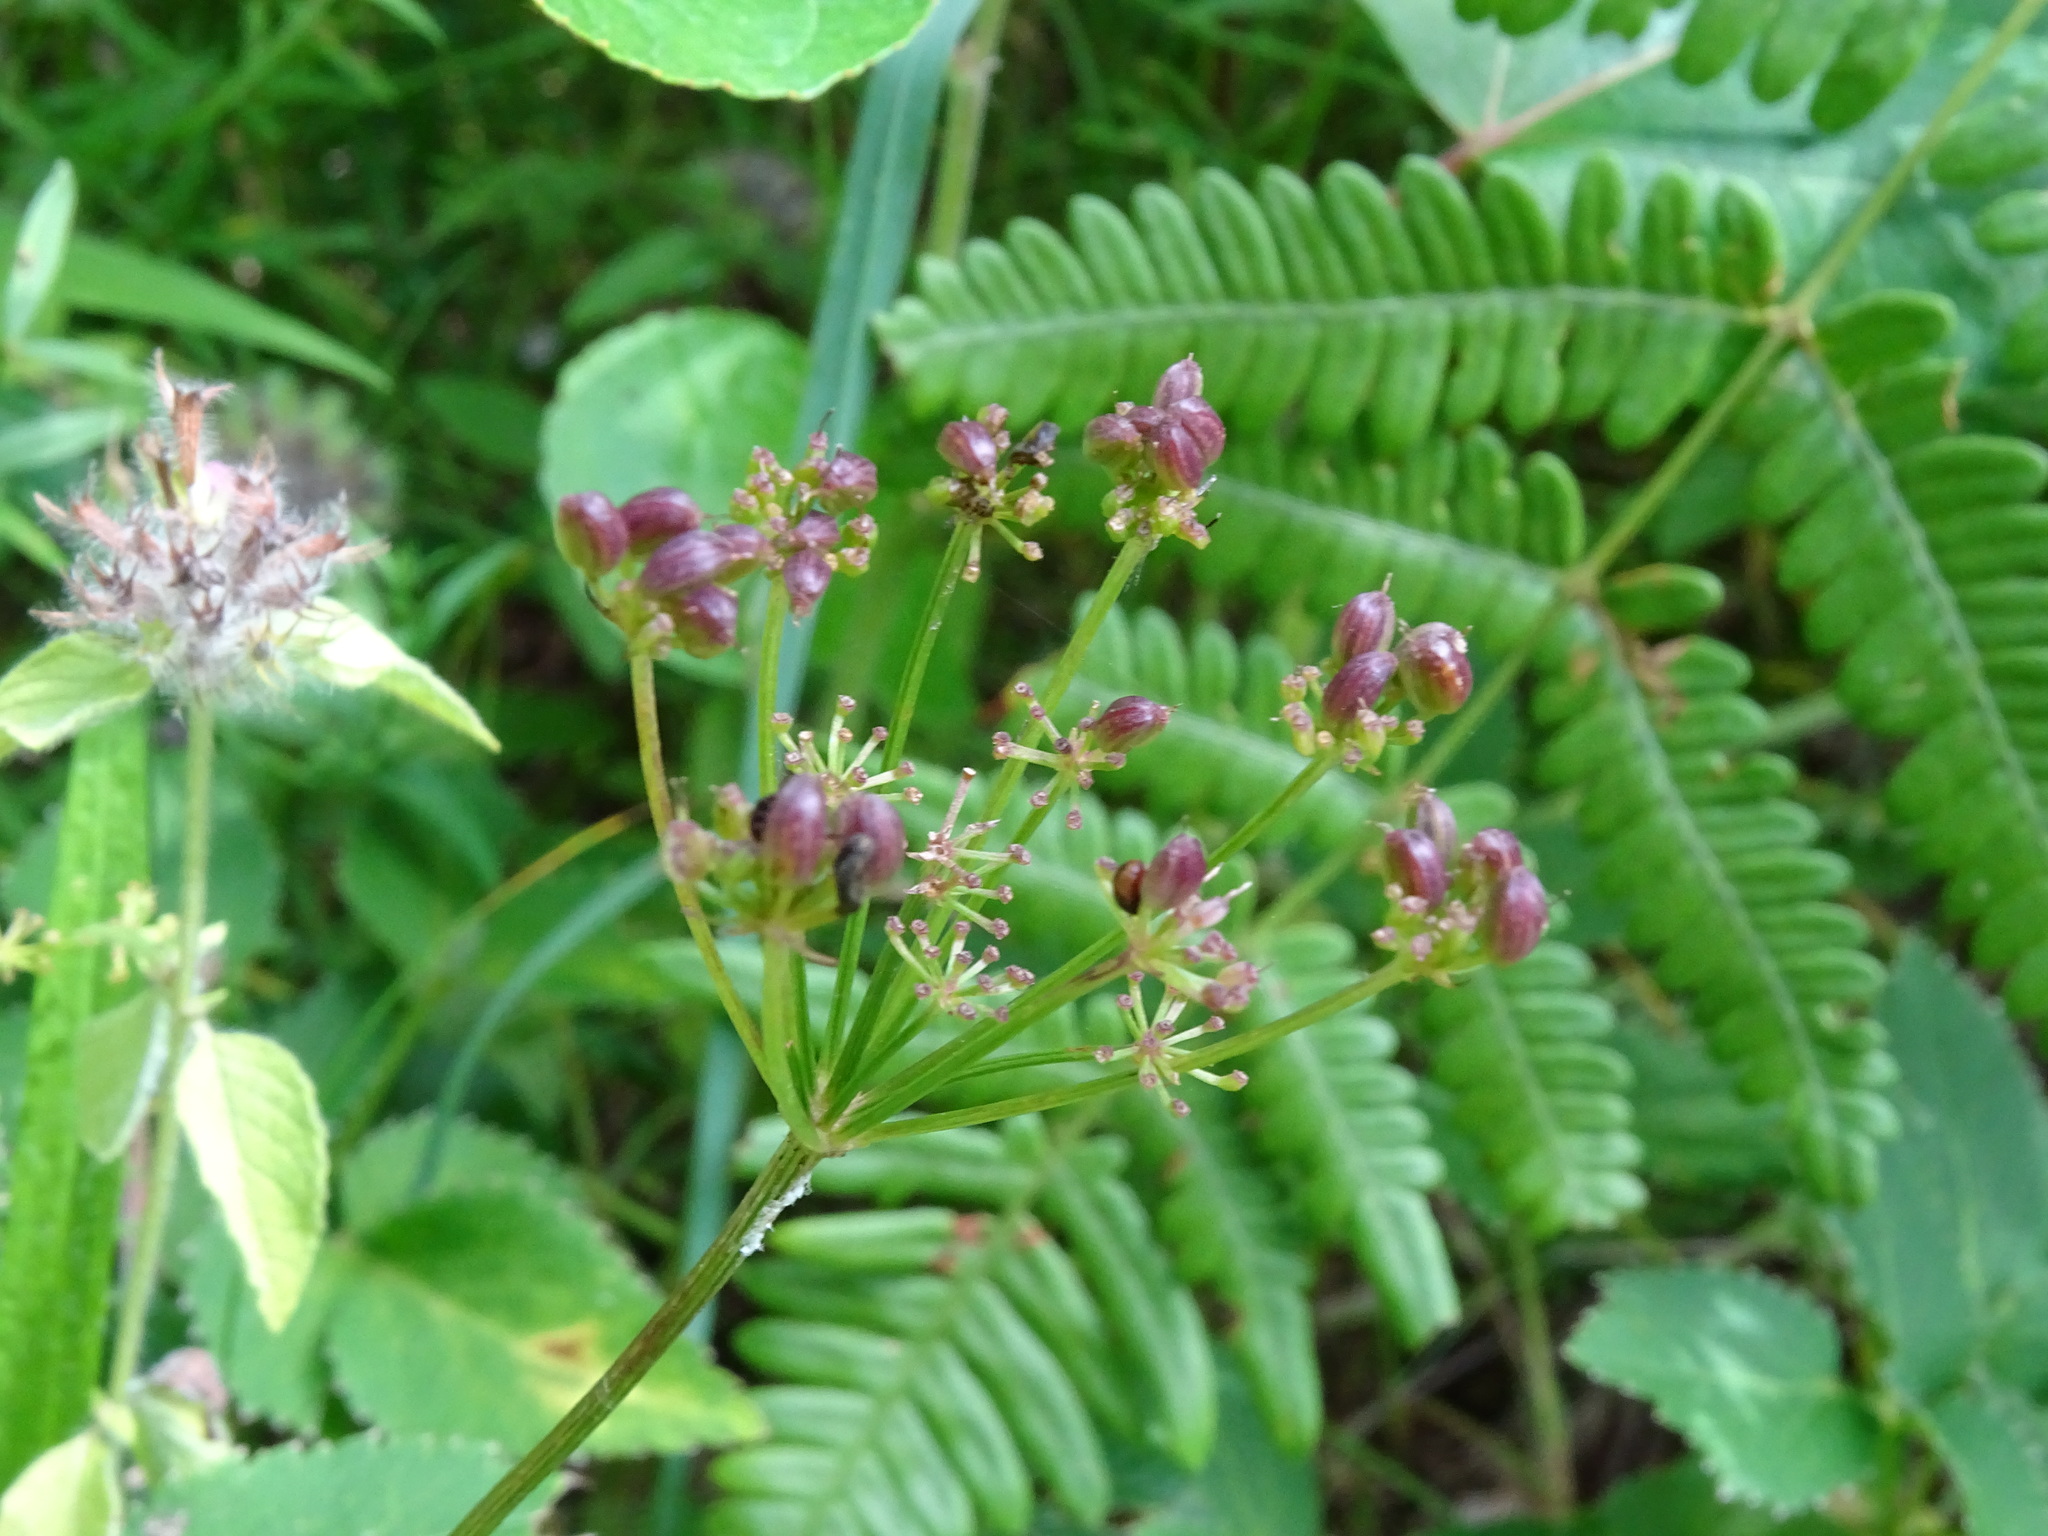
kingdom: Plantae
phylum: Tracheophyta
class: Magnoliopsida
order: Apiales
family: Apiaceae
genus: Zizia
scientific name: Zizia aurea
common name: Golden alexanders
